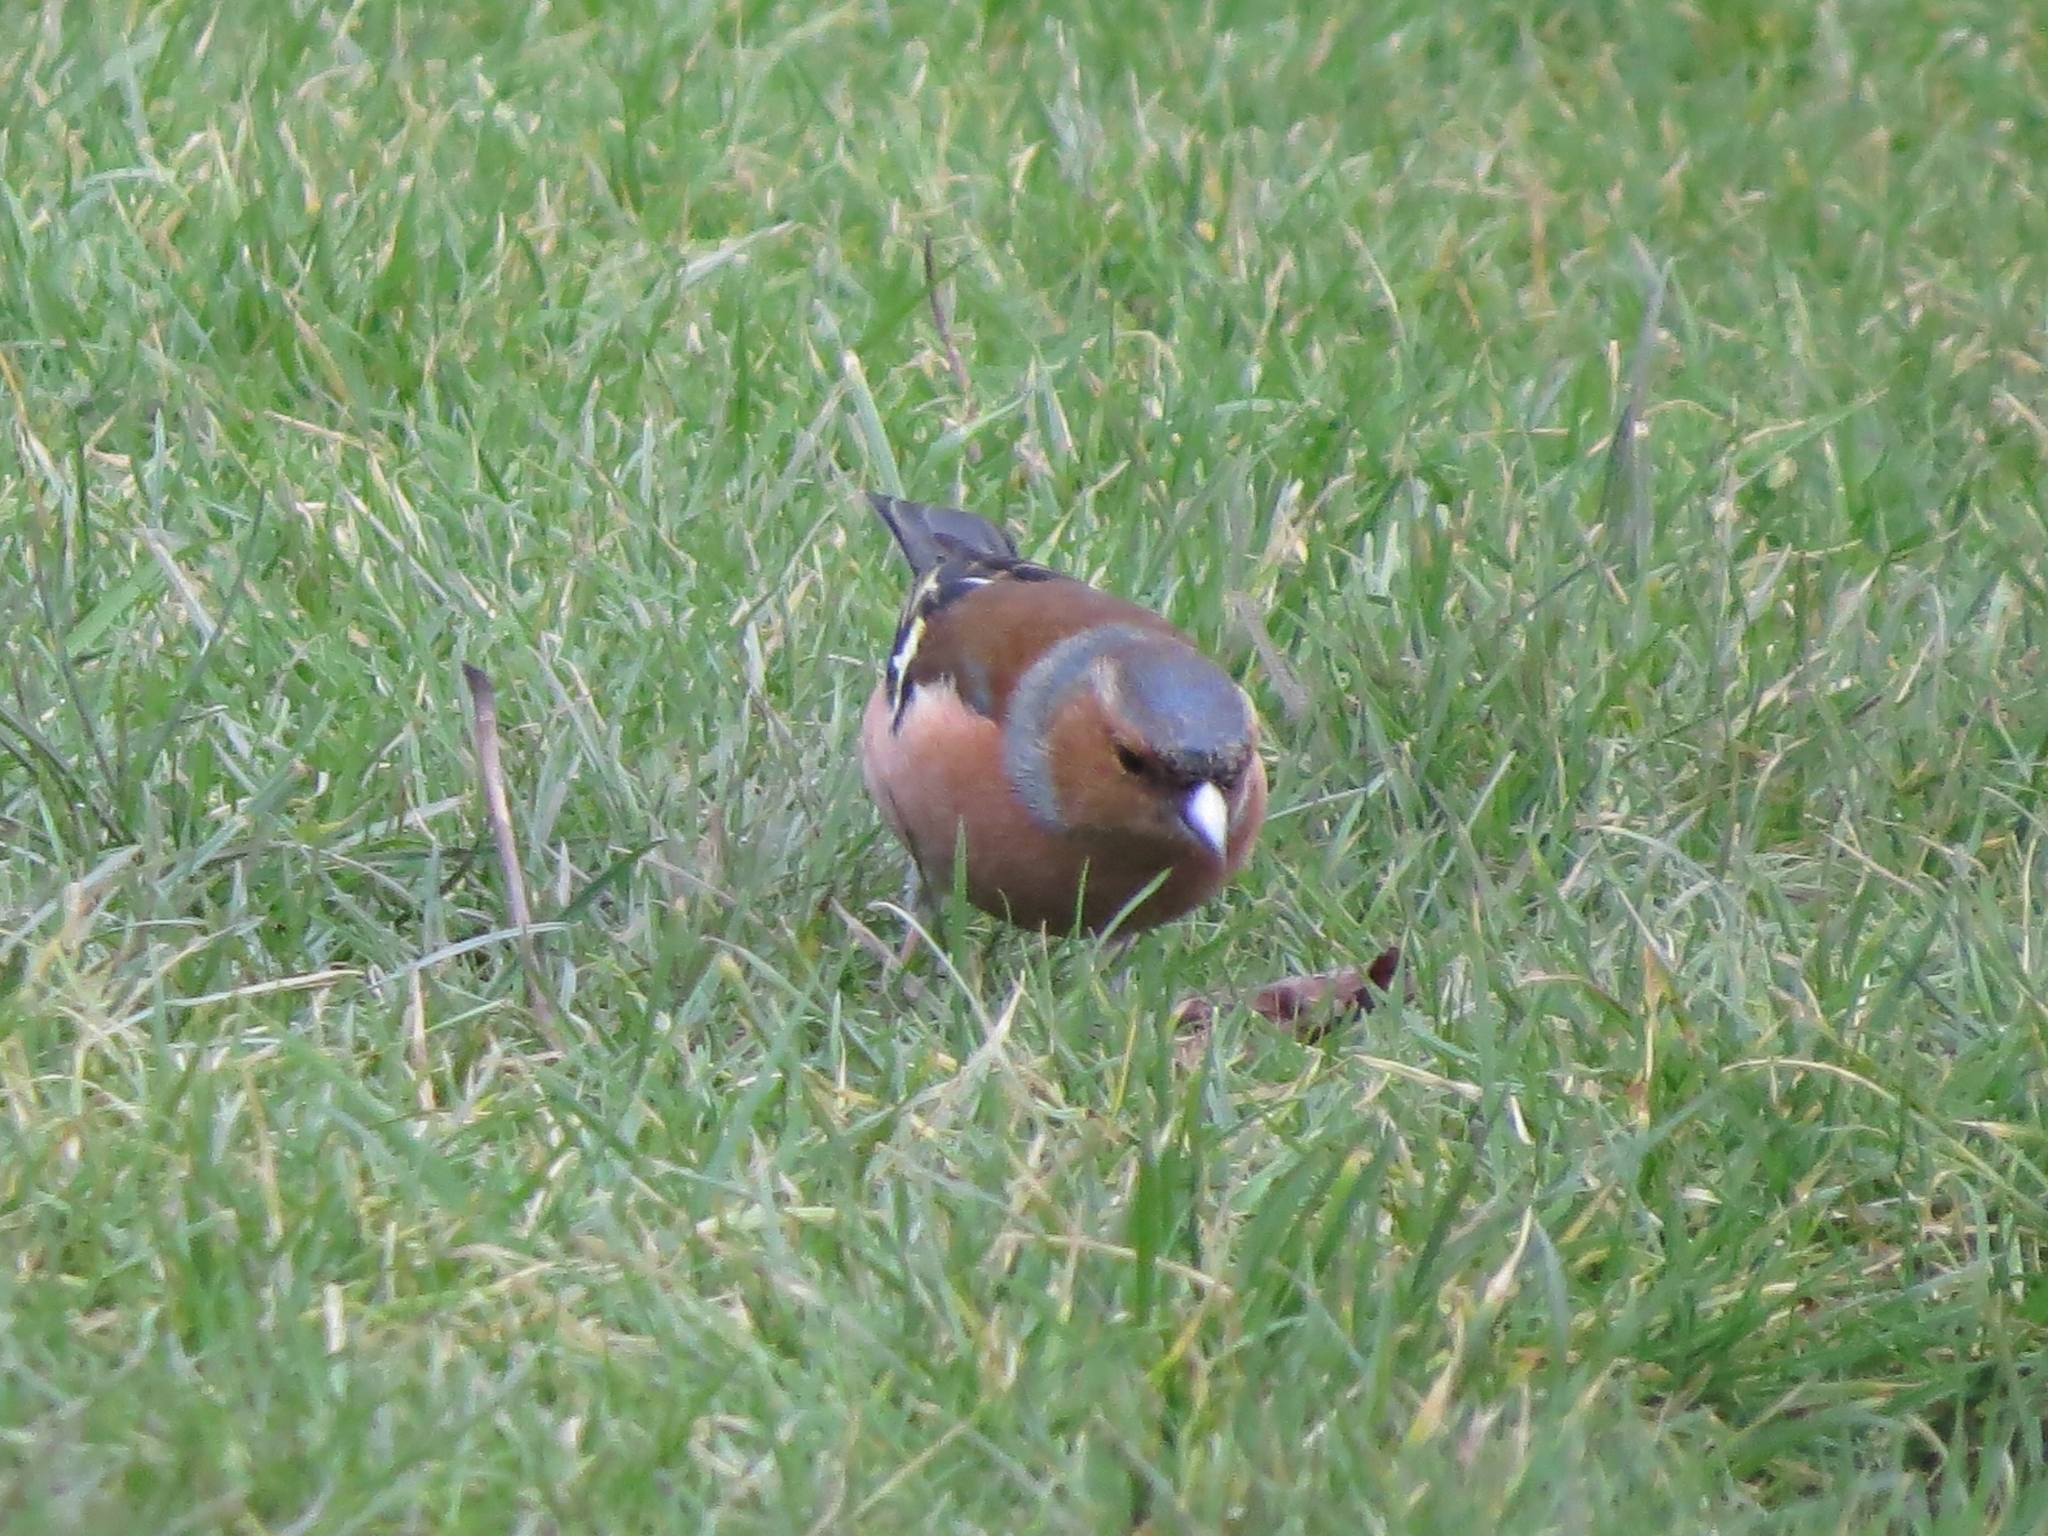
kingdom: Animalia
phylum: Chordata
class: Aves
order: Passeriformes
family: Fringillidae
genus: Fringilla
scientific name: Fringilla coelebs
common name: Common chaffinch
